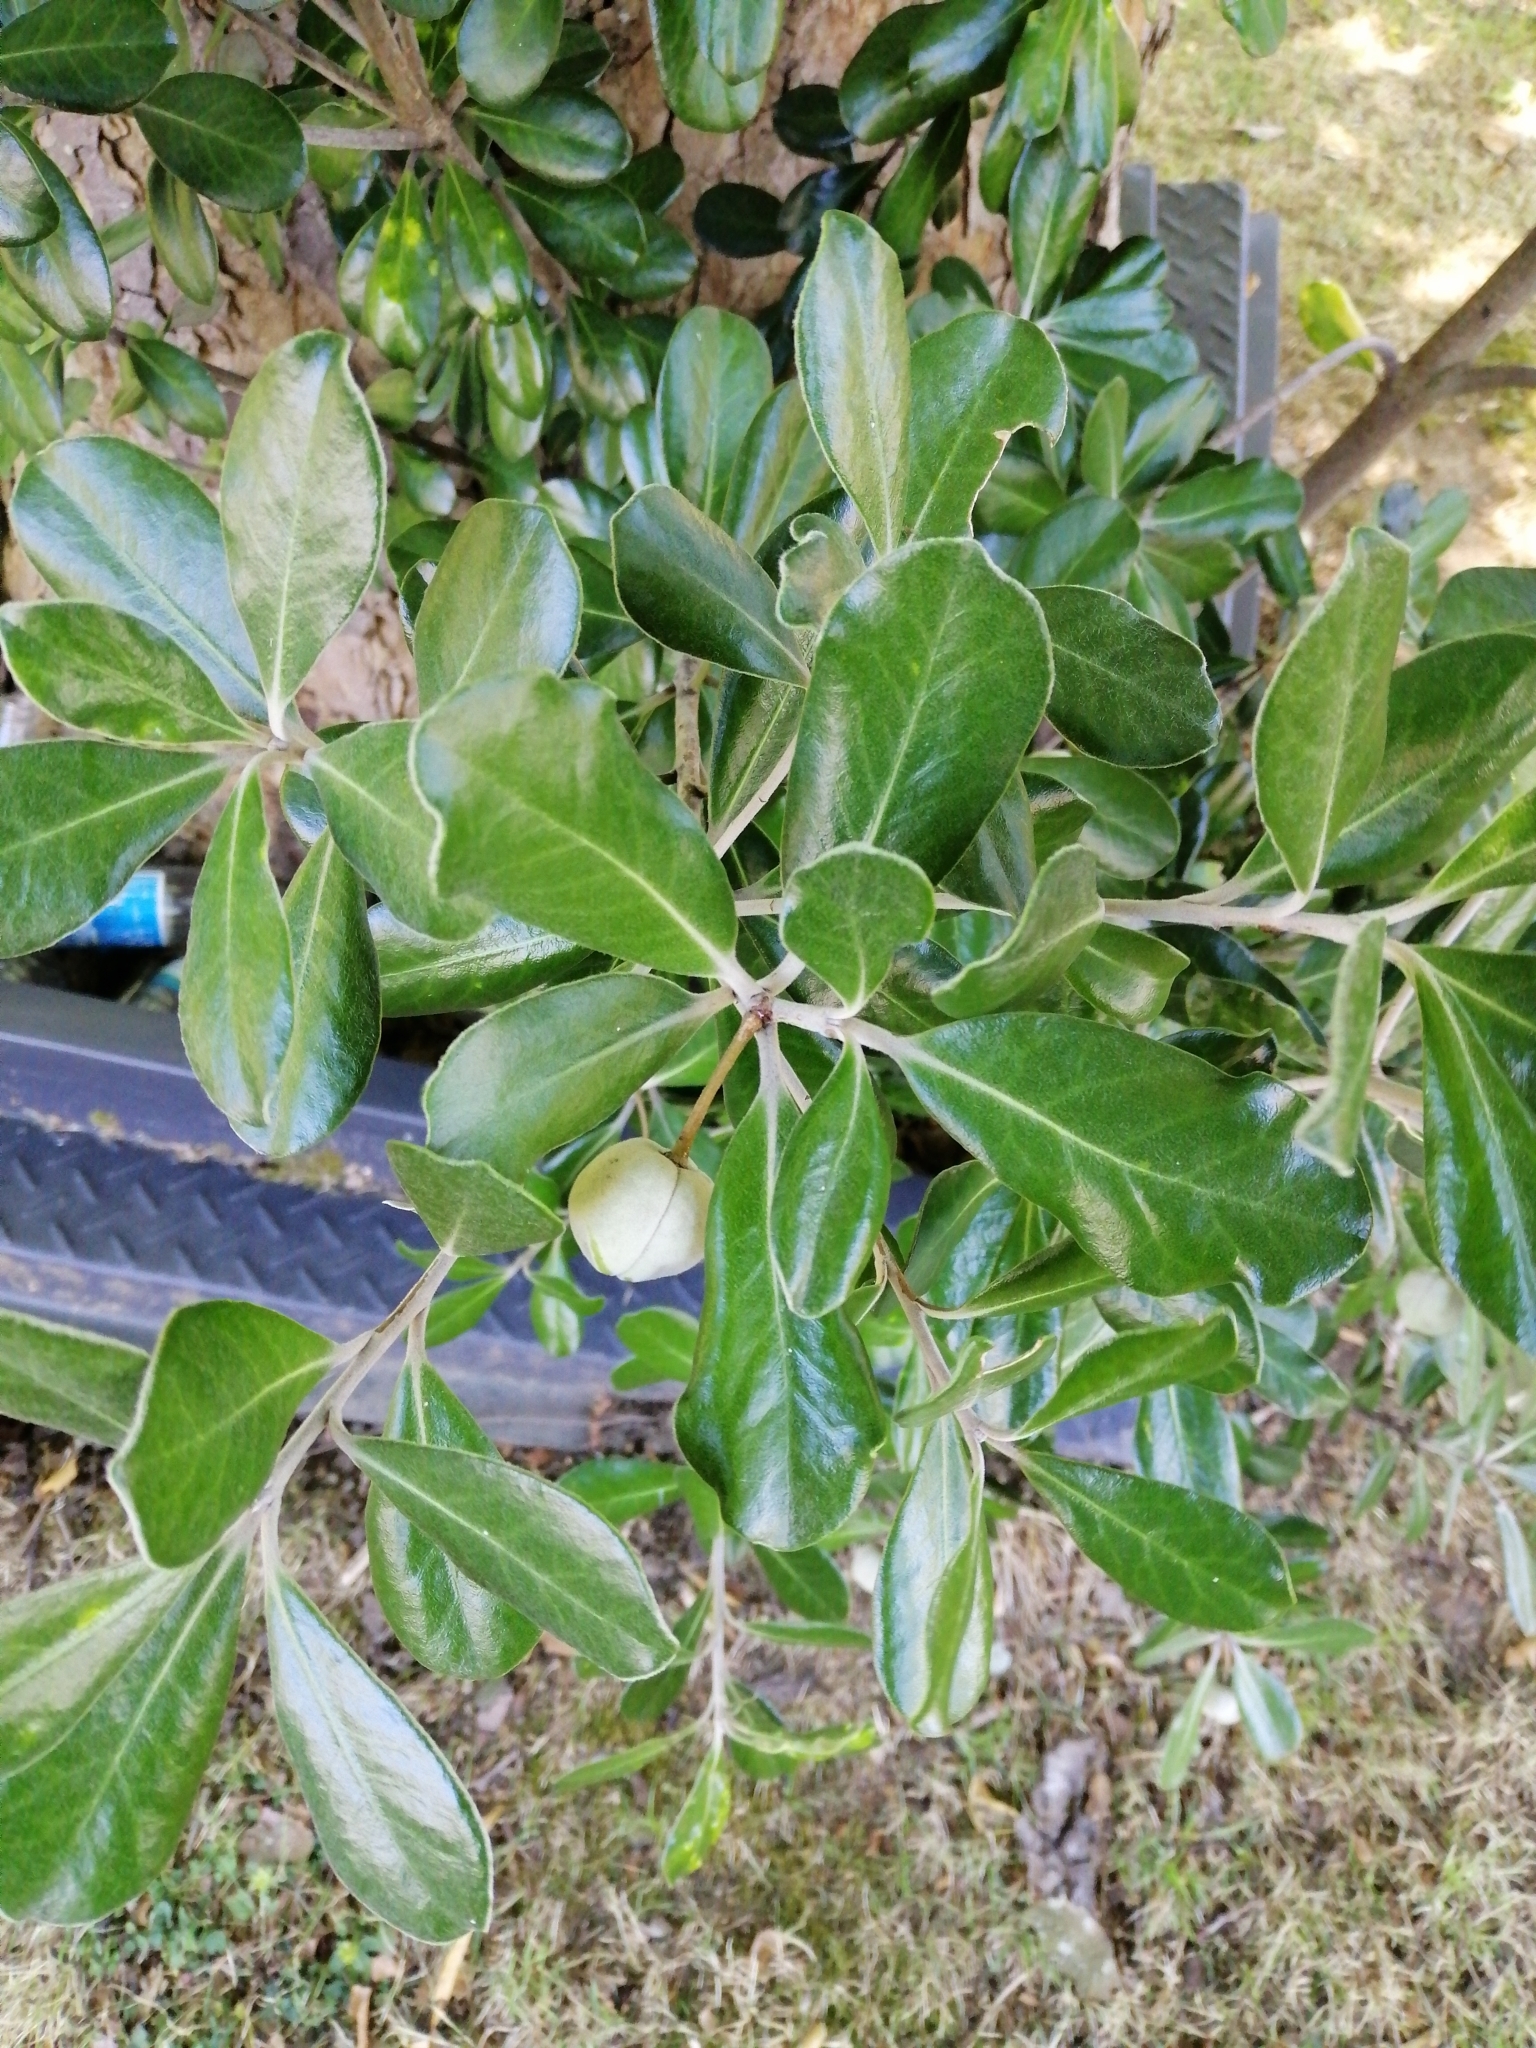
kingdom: Plantae
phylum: Tracheophyta
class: Magnoliopsida
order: Apiales
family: Pittosporaceae
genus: Pittosporum
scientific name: Pittosporum crassifolium
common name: Karo
